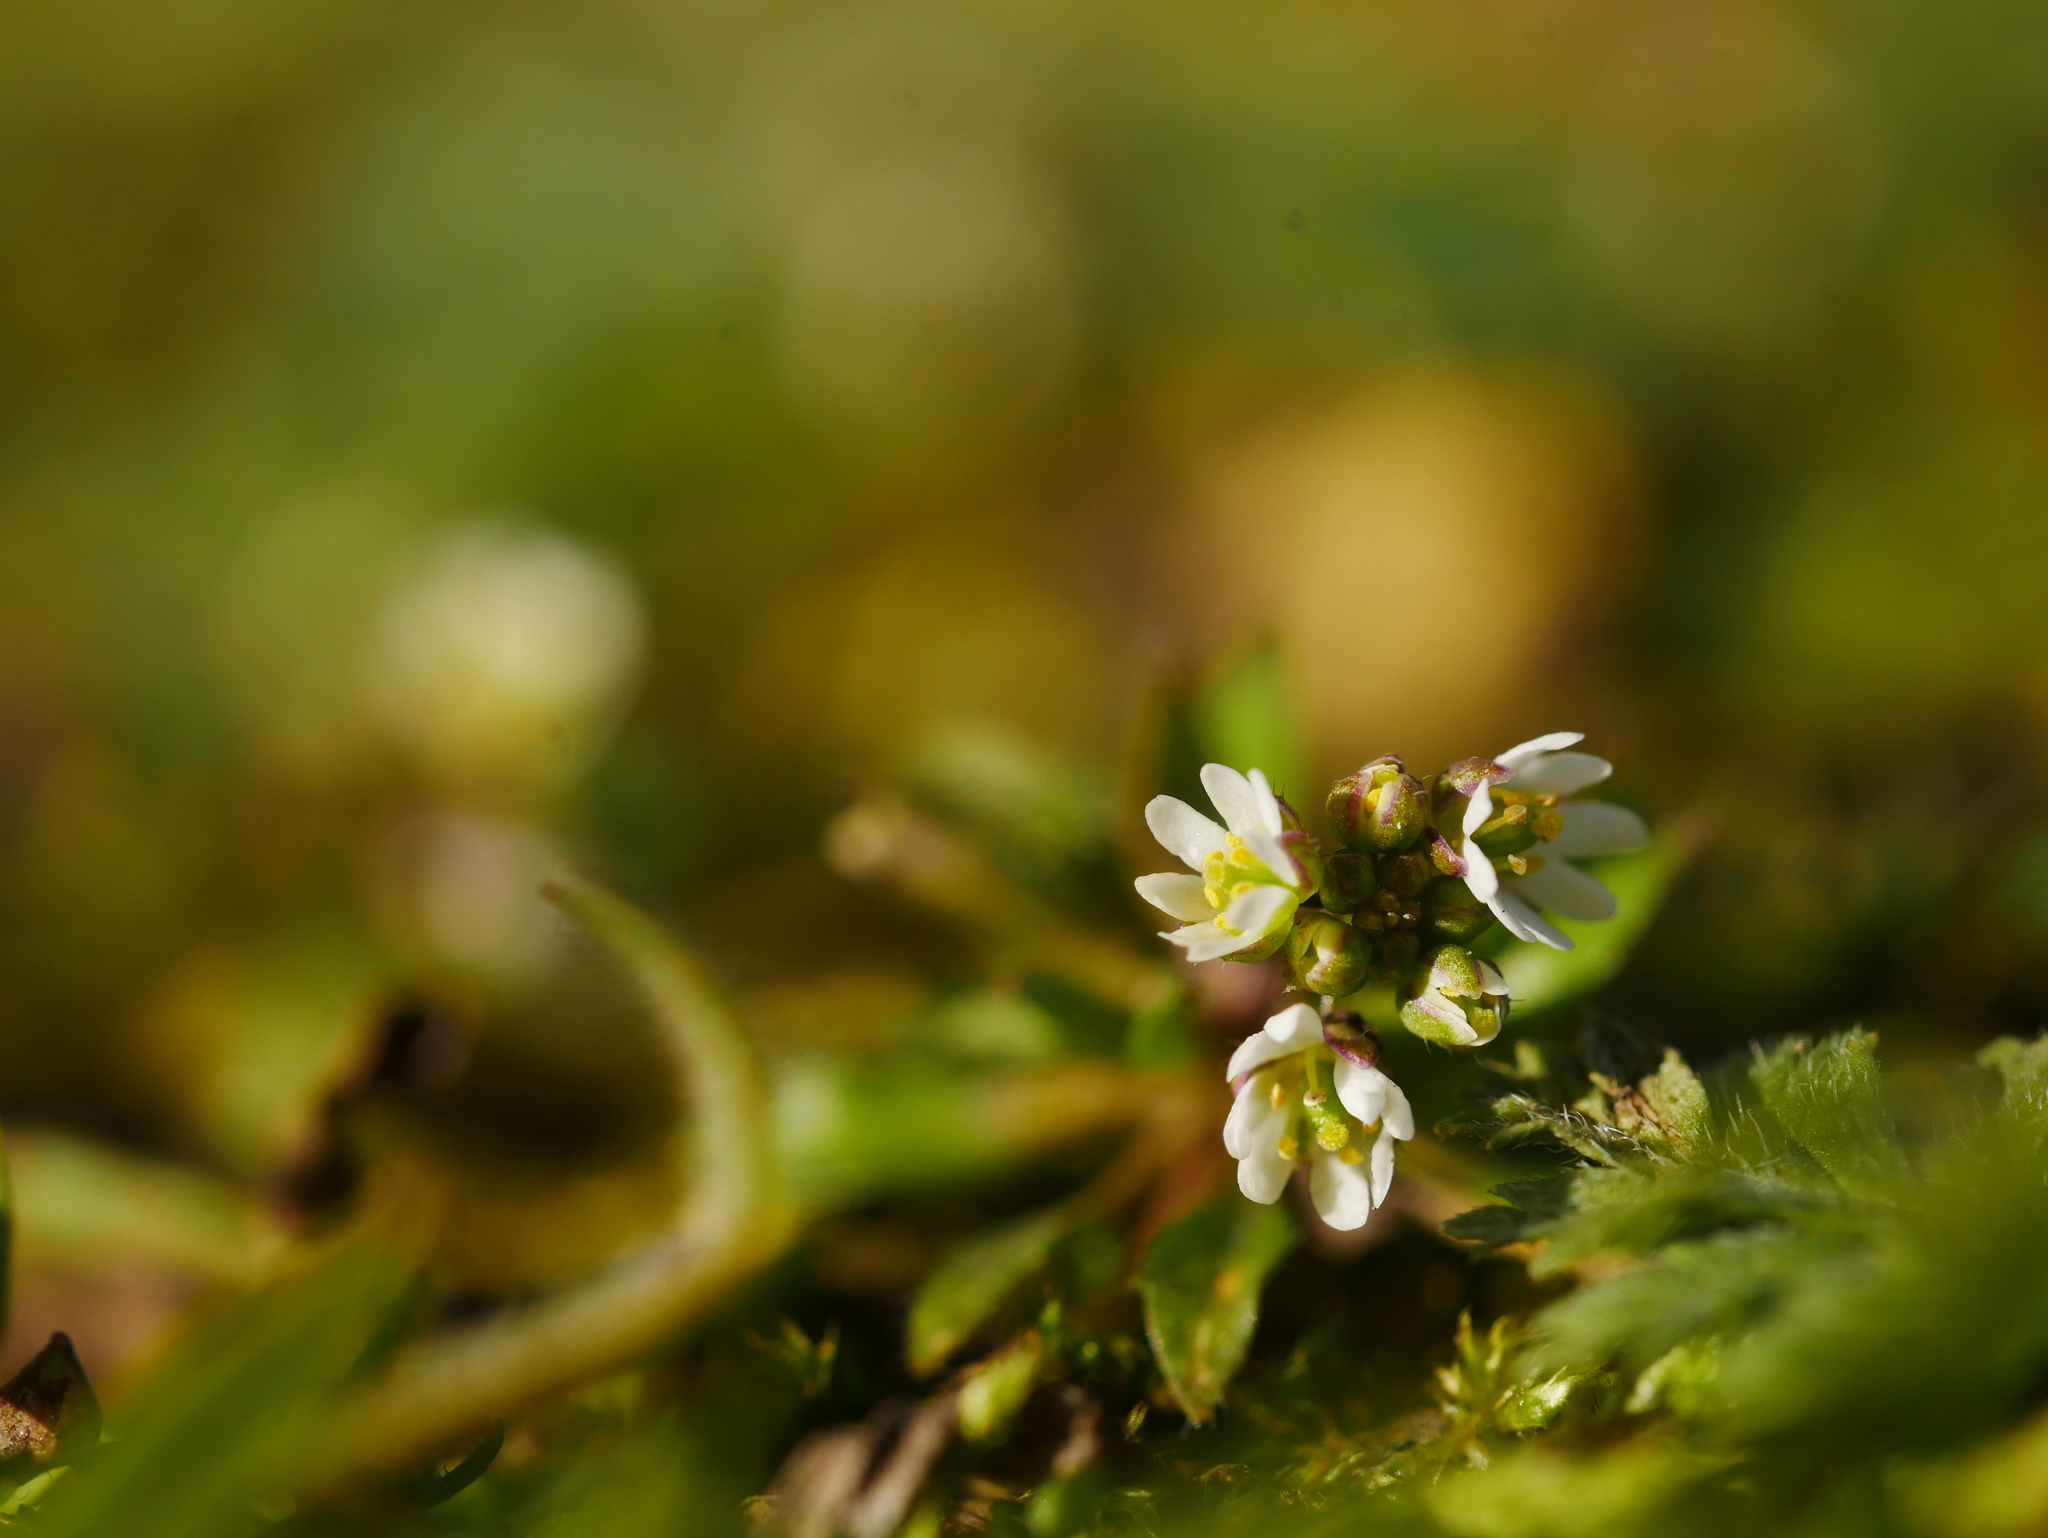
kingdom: Plantae
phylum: Tracheophyta
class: Magnoliopsida
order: Brassicales
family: Brassicaceae
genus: Draba
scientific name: Draba verna
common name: Spring draba
